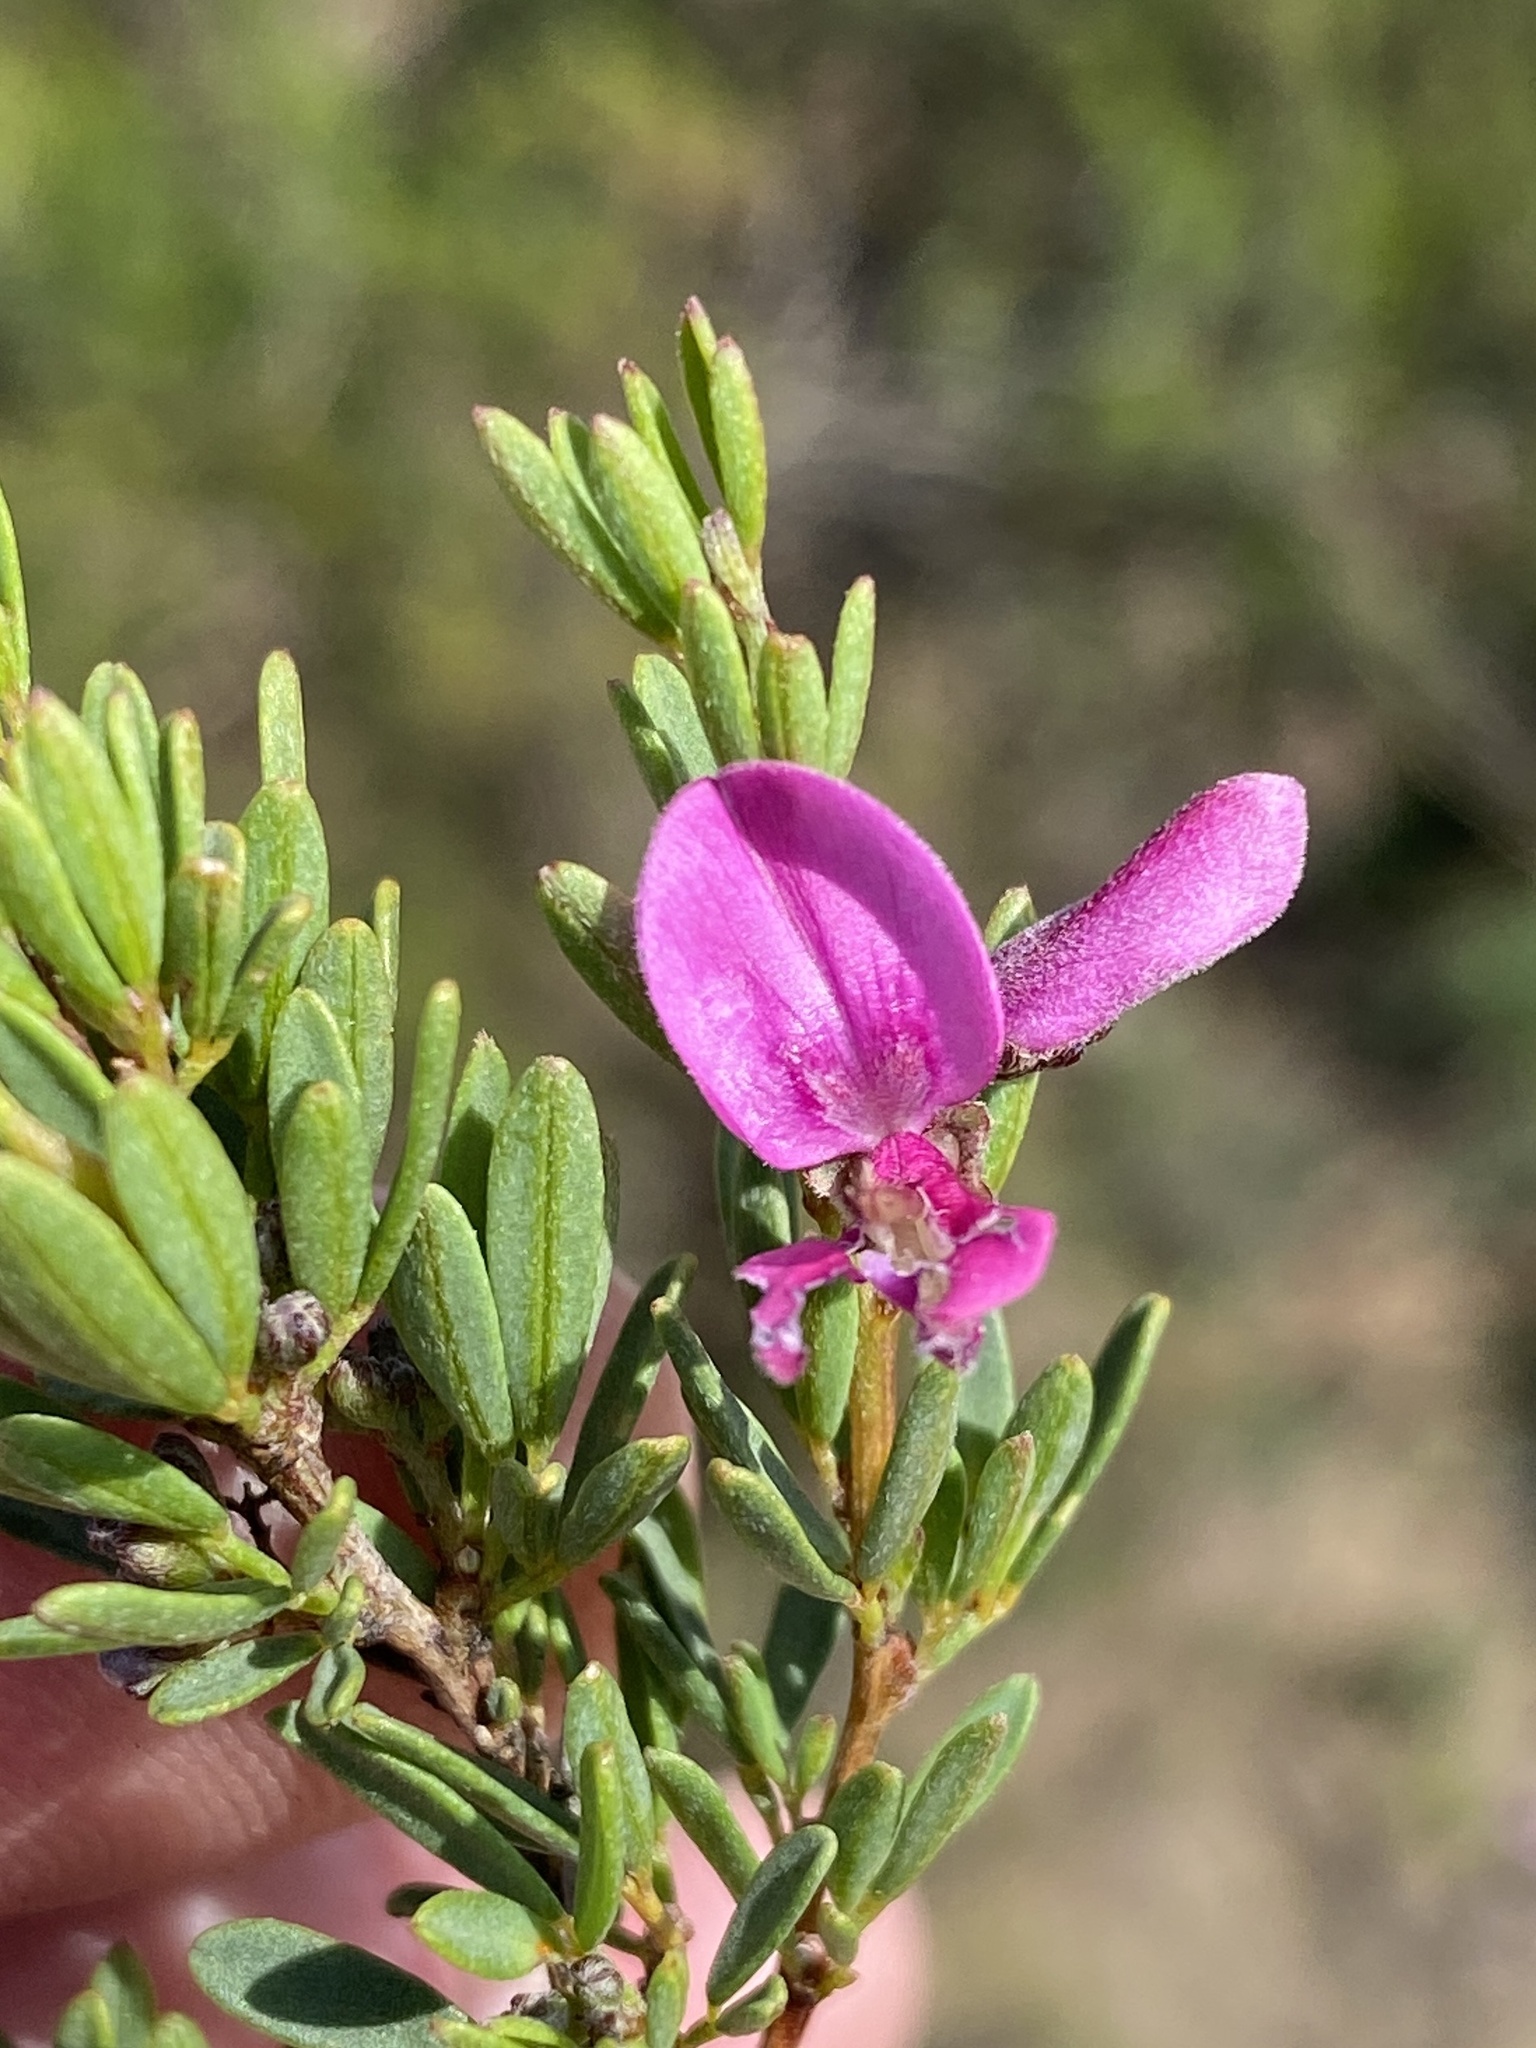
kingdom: Plantae
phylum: Tracheophyta
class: Magnoliopsida
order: Fabales
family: Fabaceae
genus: Indigofera
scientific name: Indigofera denudata
